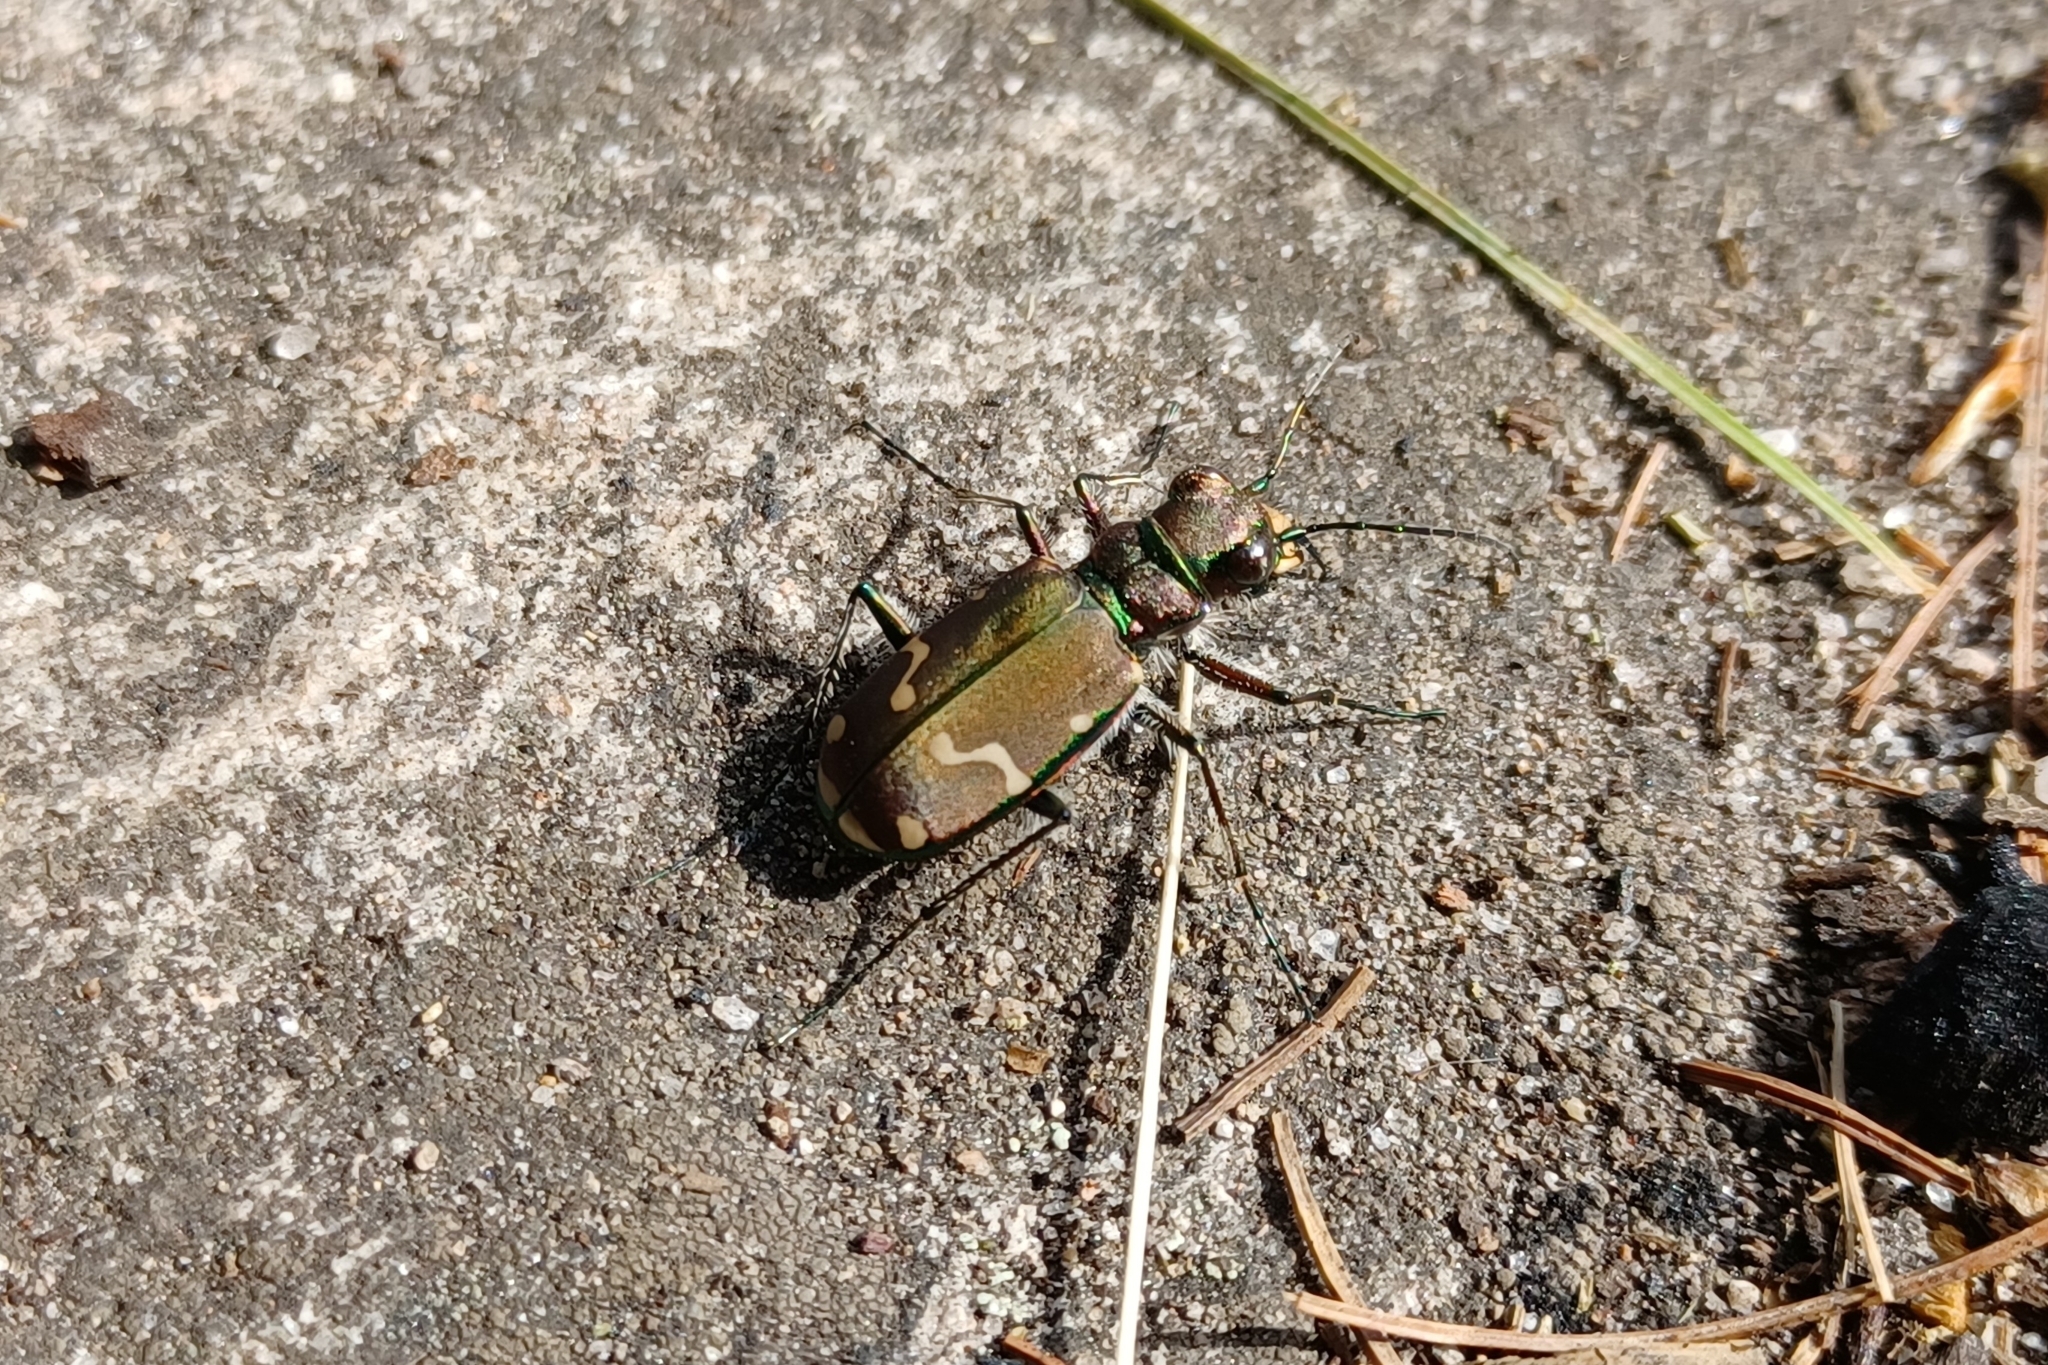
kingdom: Animalia
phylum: Arthropoda
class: Insecta
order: Coleoptera
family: Carabidae
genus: Cicindela
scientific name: Cicindela limbalis
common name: Common claybank tiger beetle
